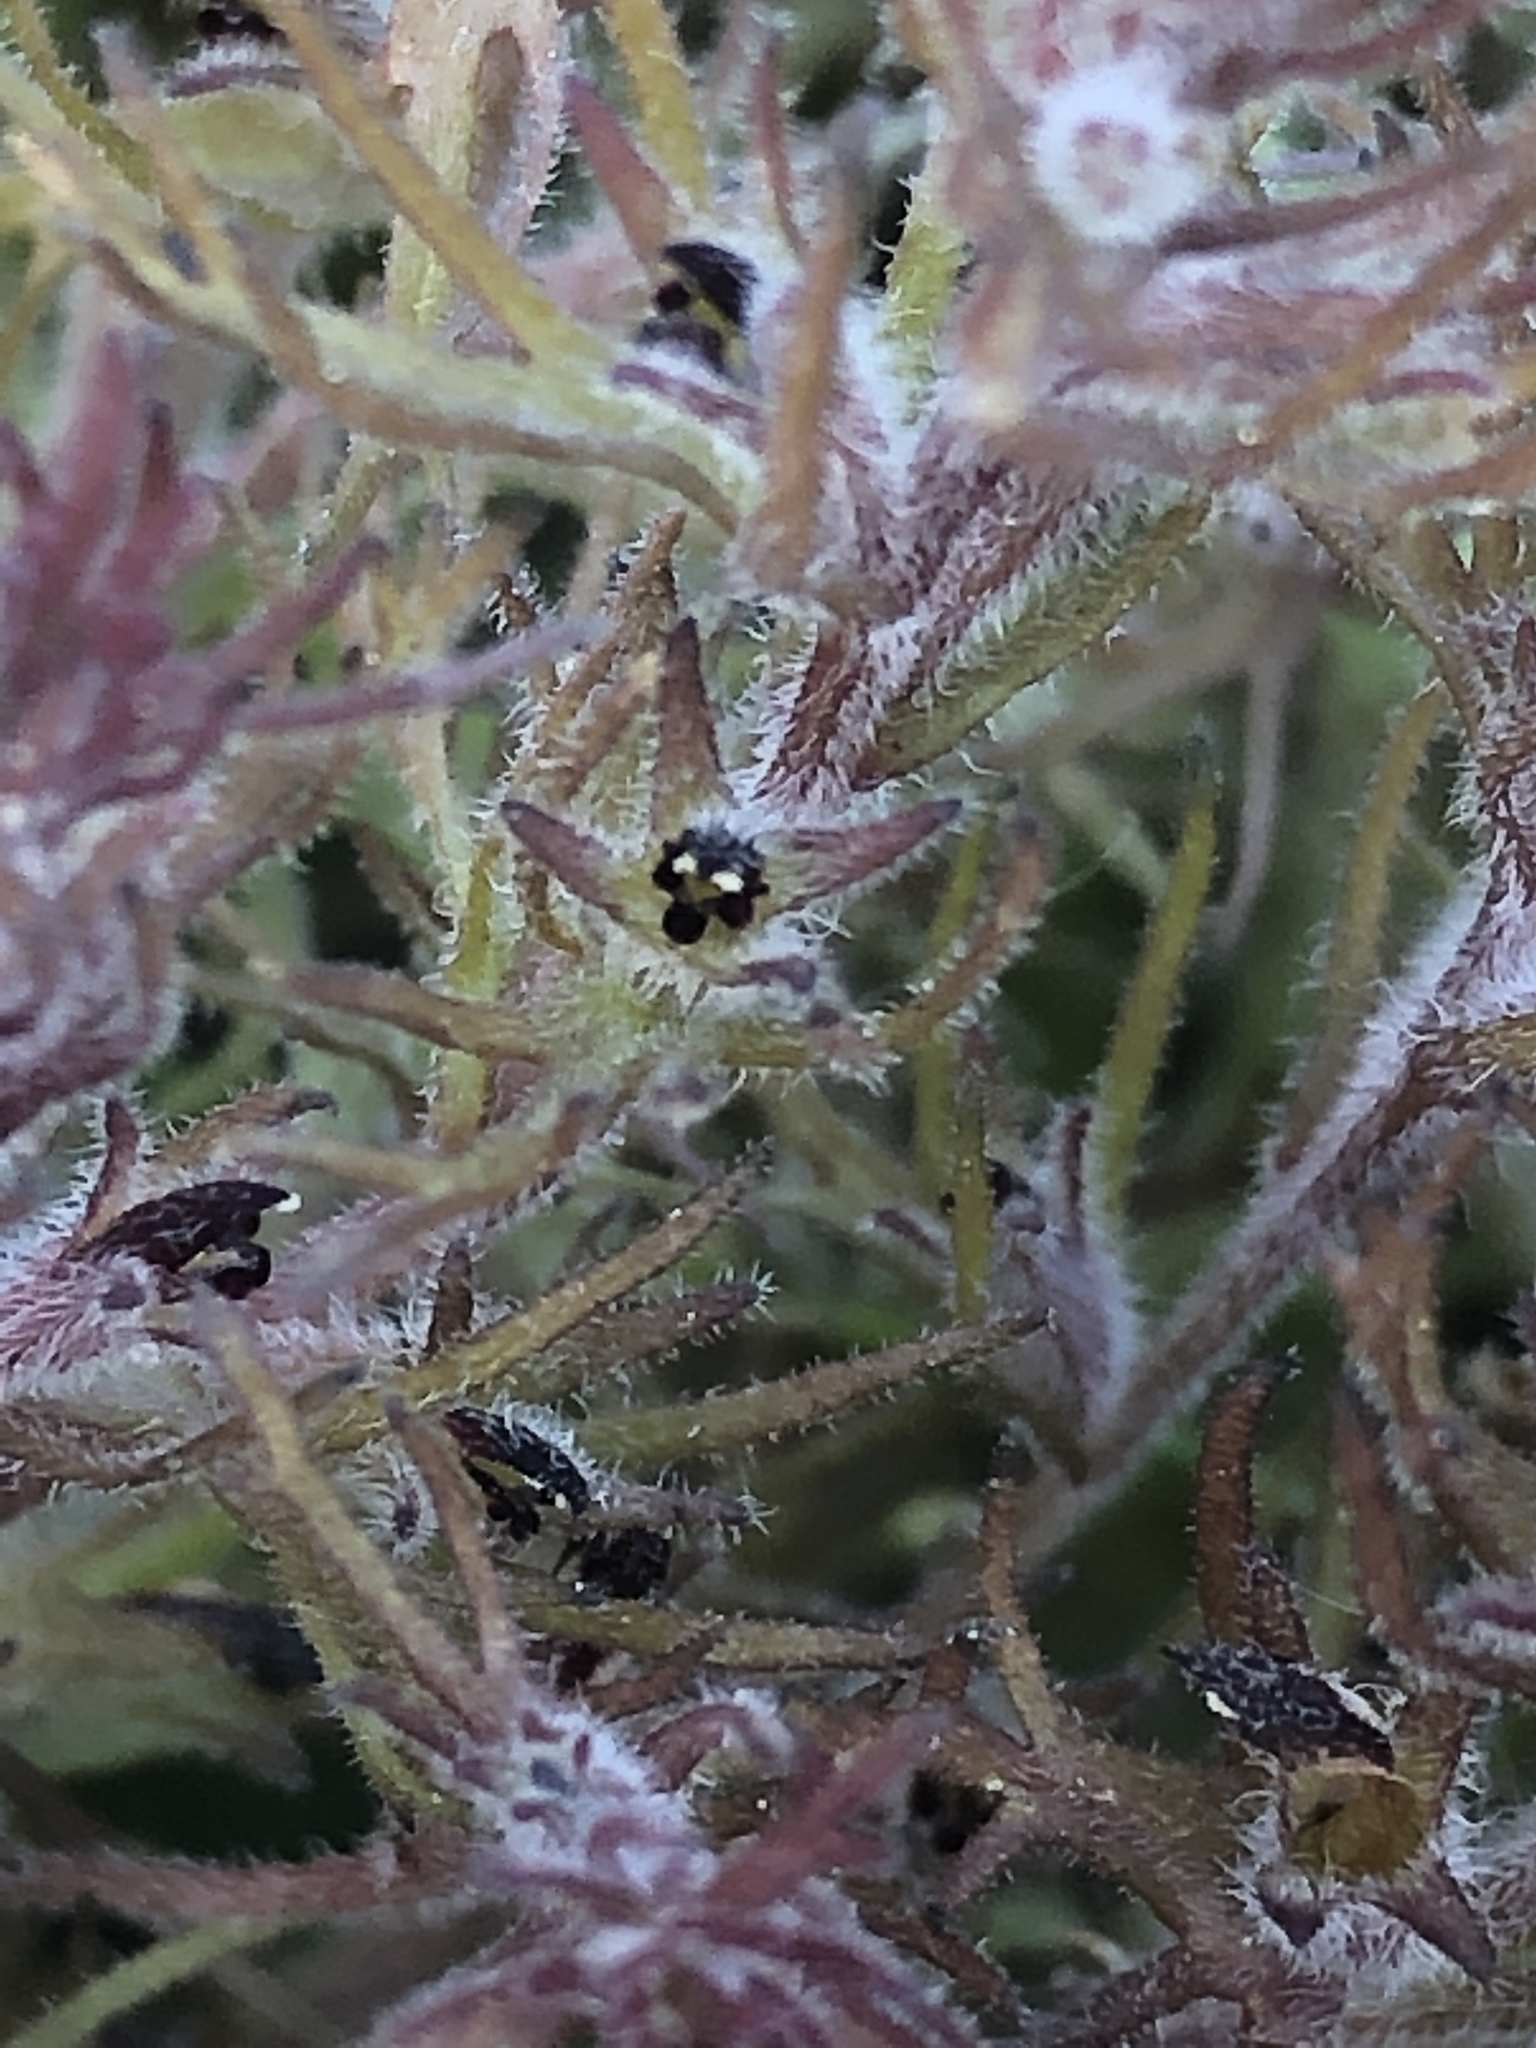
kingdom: Plantae
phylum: Tracheophyta
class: Magnoliopsida
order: Lamiales
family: Orobanchaceae
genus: Triphysaria
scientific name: Triphysaria pusilla
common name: Dwarf false owl-clover
